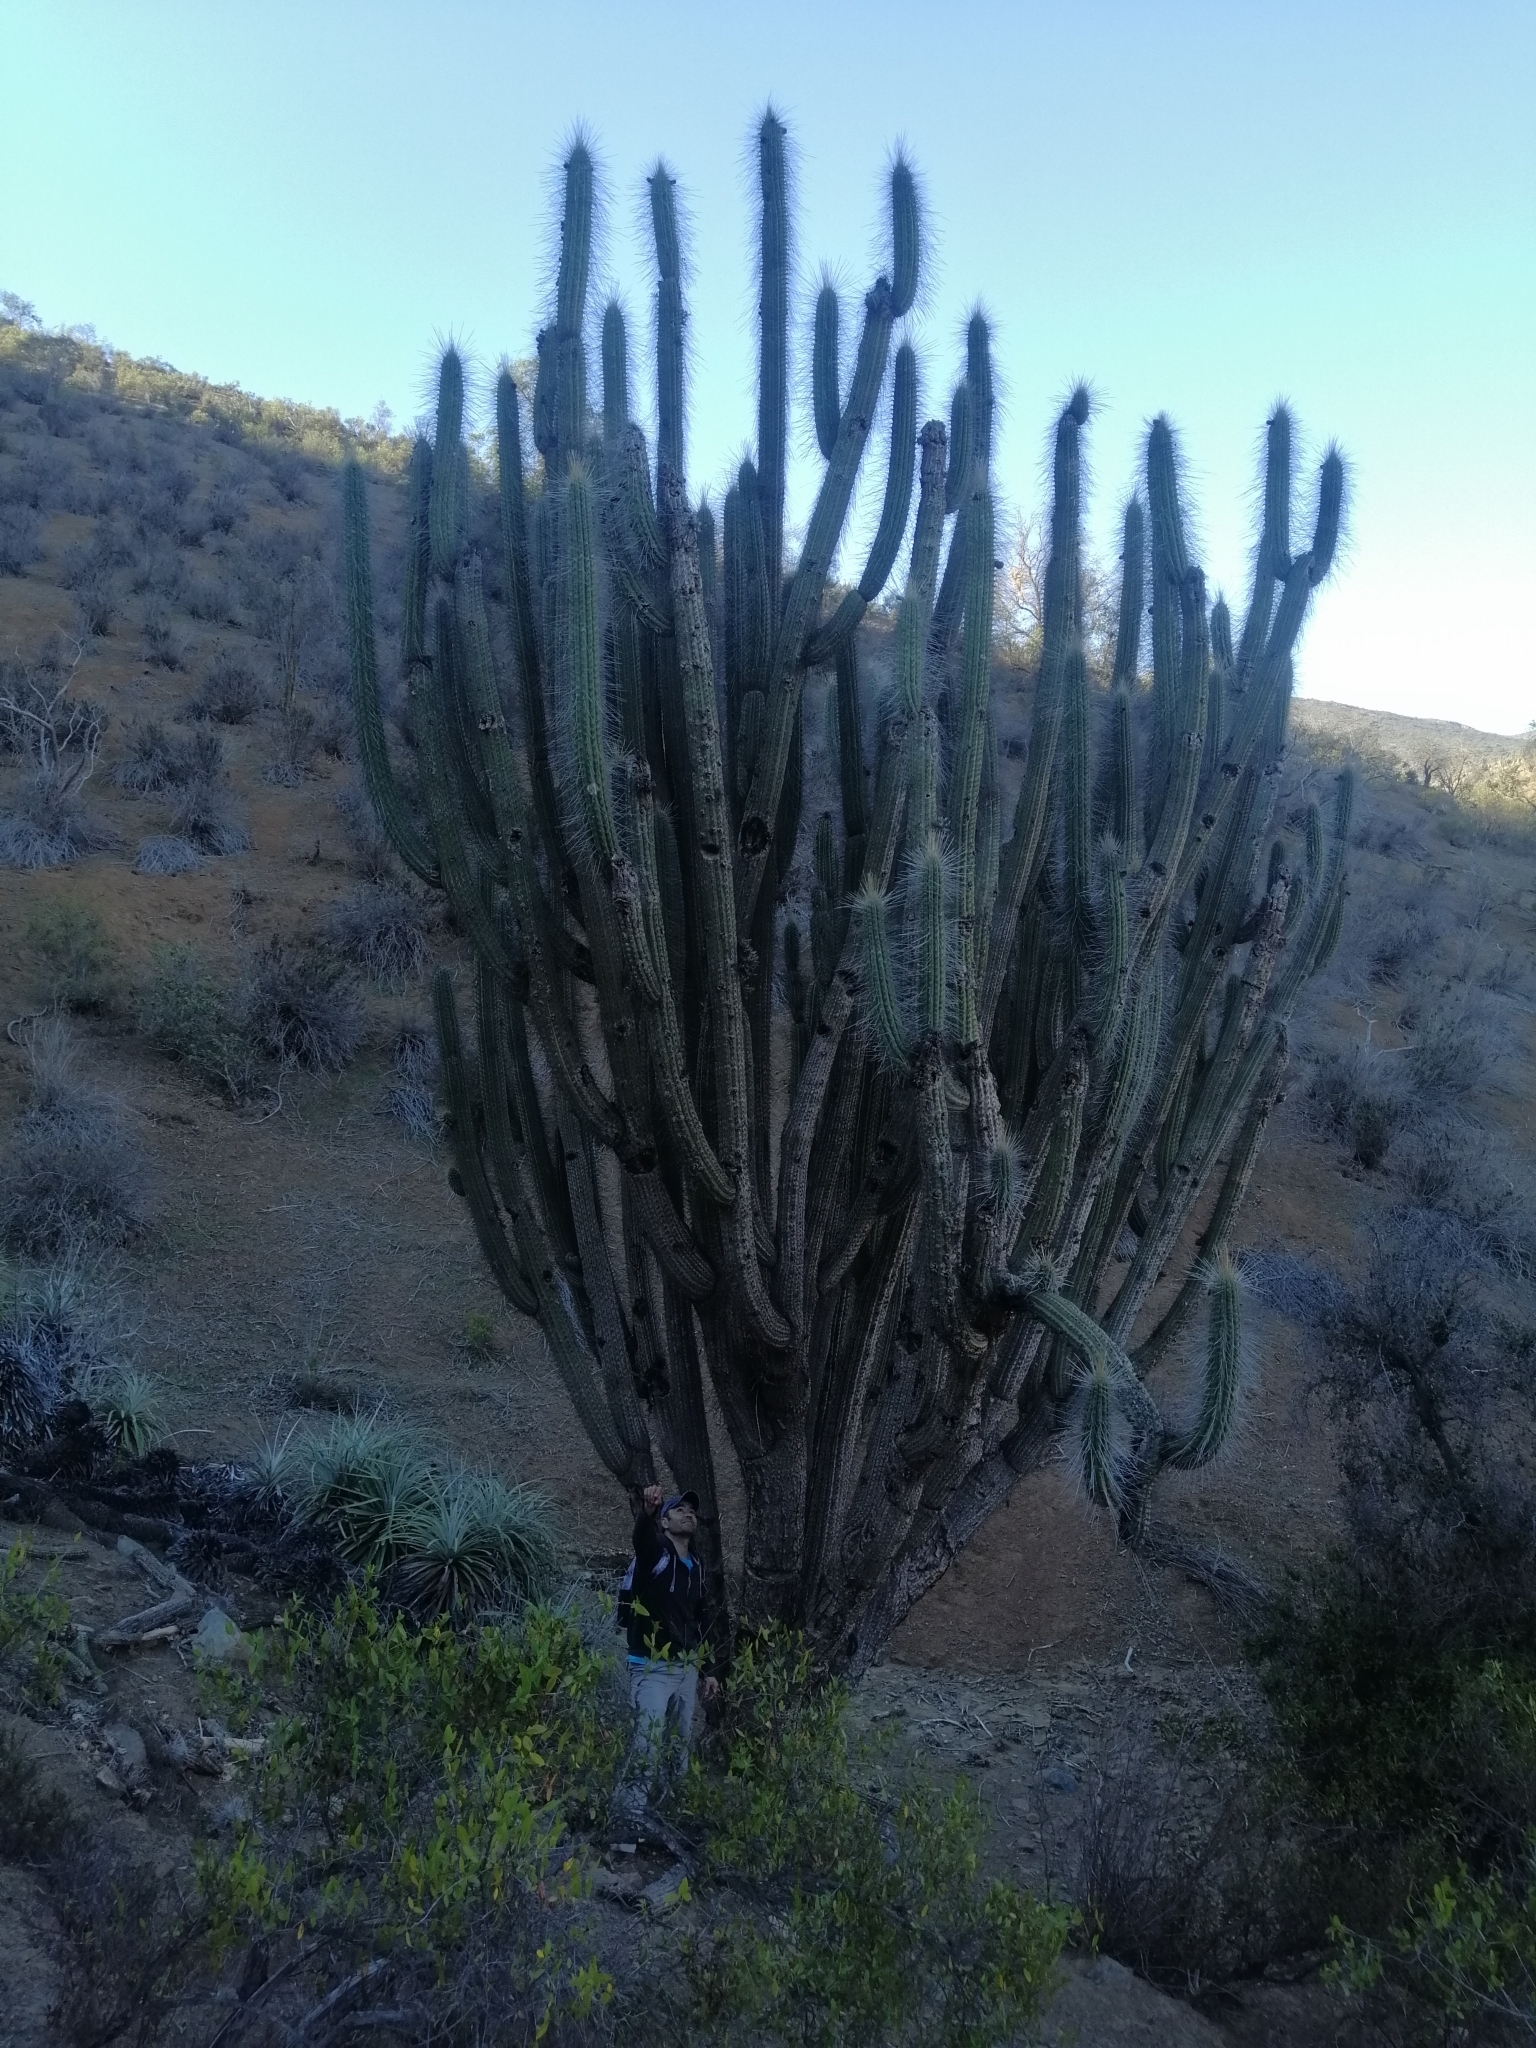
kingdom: Plantae
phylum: Tracheophyta
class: Magnoliopsida
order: Caryophyllales
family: Cactaceae
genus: Eulychnia
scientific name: Eulychnia acida
